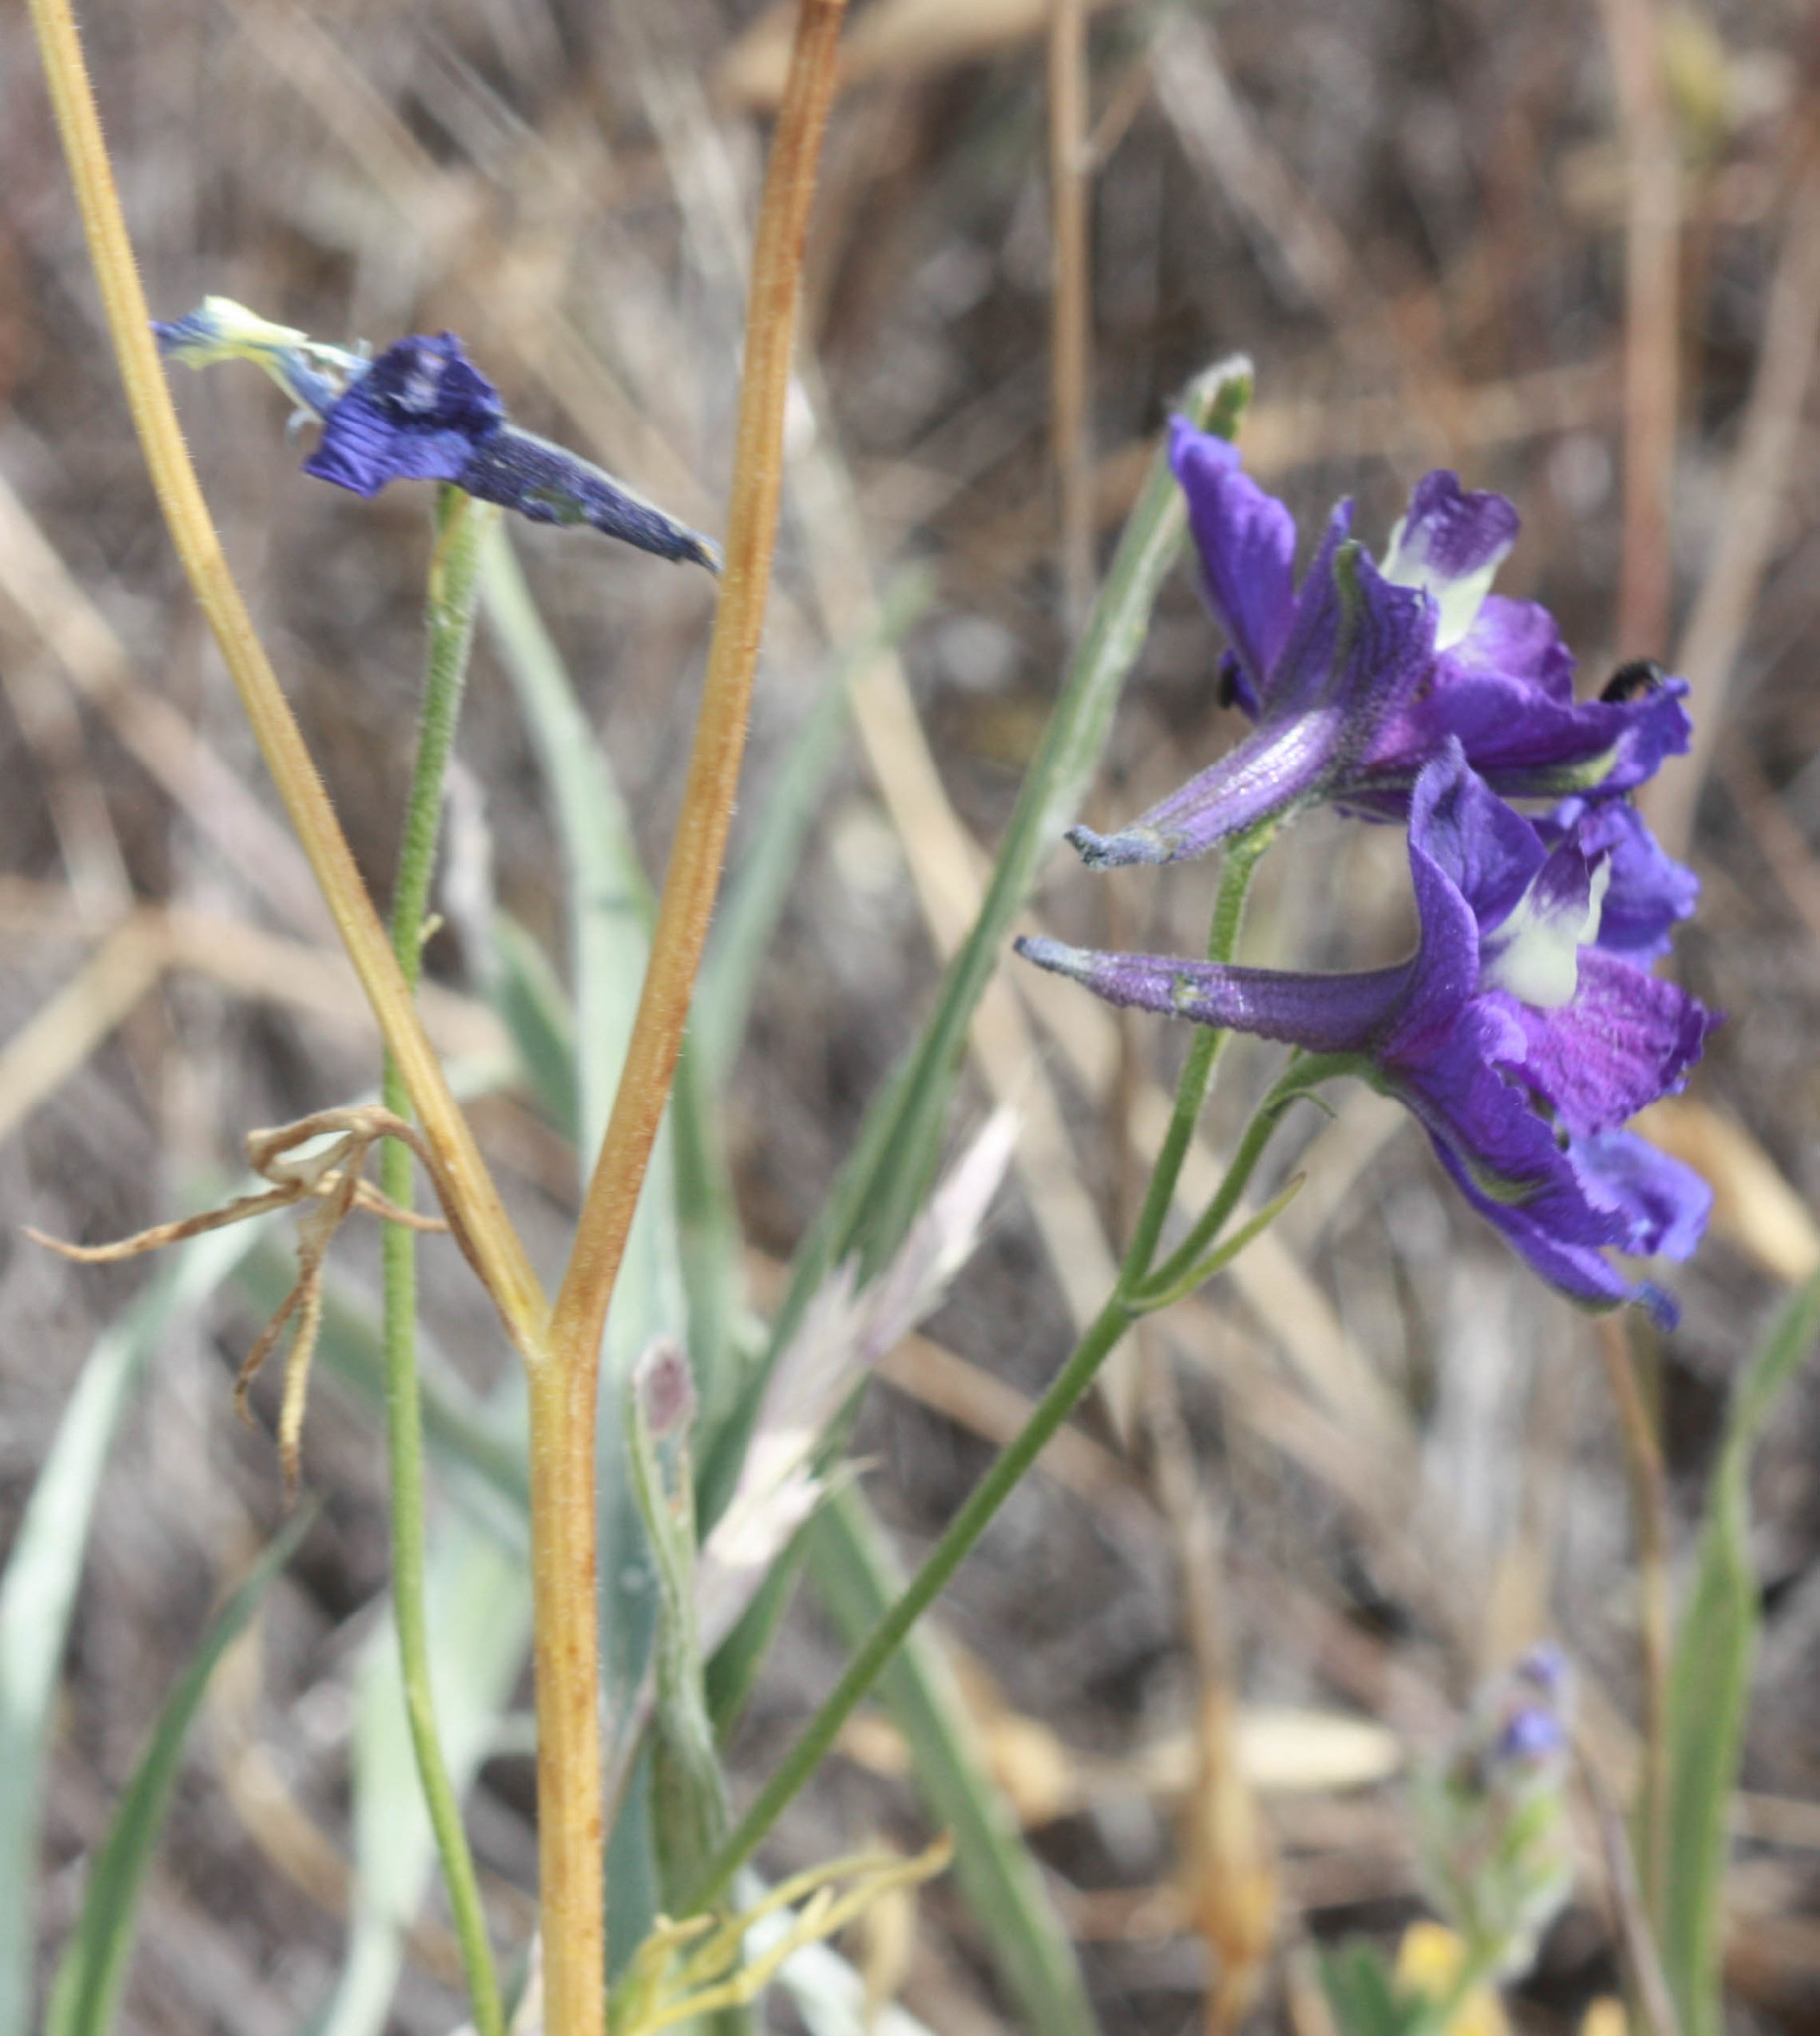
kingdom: Plantae
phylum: Tracheophyta
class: Magnoliopsida
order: Ranunculales
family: Ranunculaceae
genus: Delphinium
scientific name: Delphinium variegatum
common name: Royal larkspur
